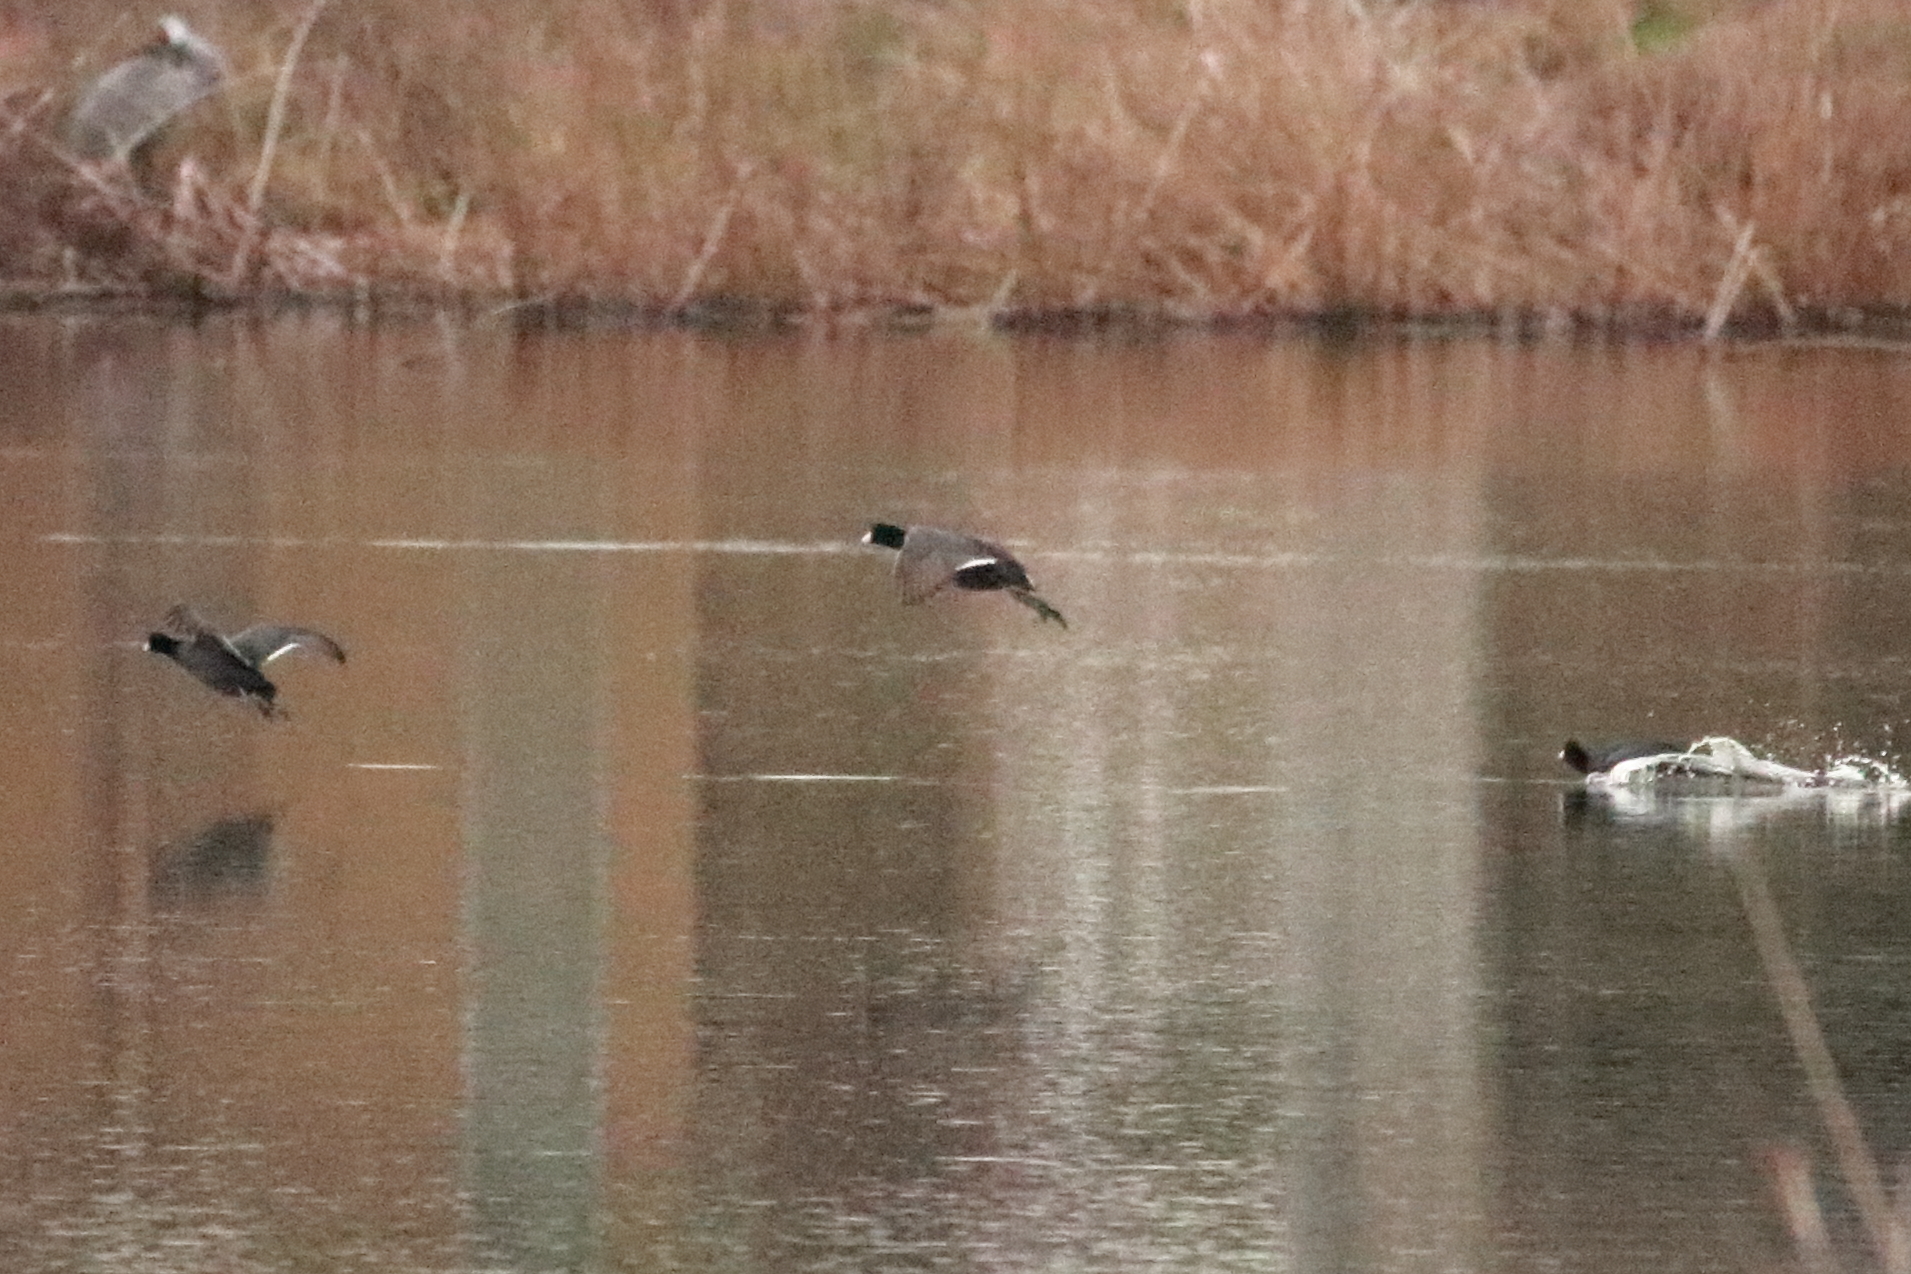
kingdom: Animalia
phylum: Chordata
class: Aves
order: Gruiformes
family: Rallidae
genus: Fulica
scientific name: Fulica americana
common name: American coot
